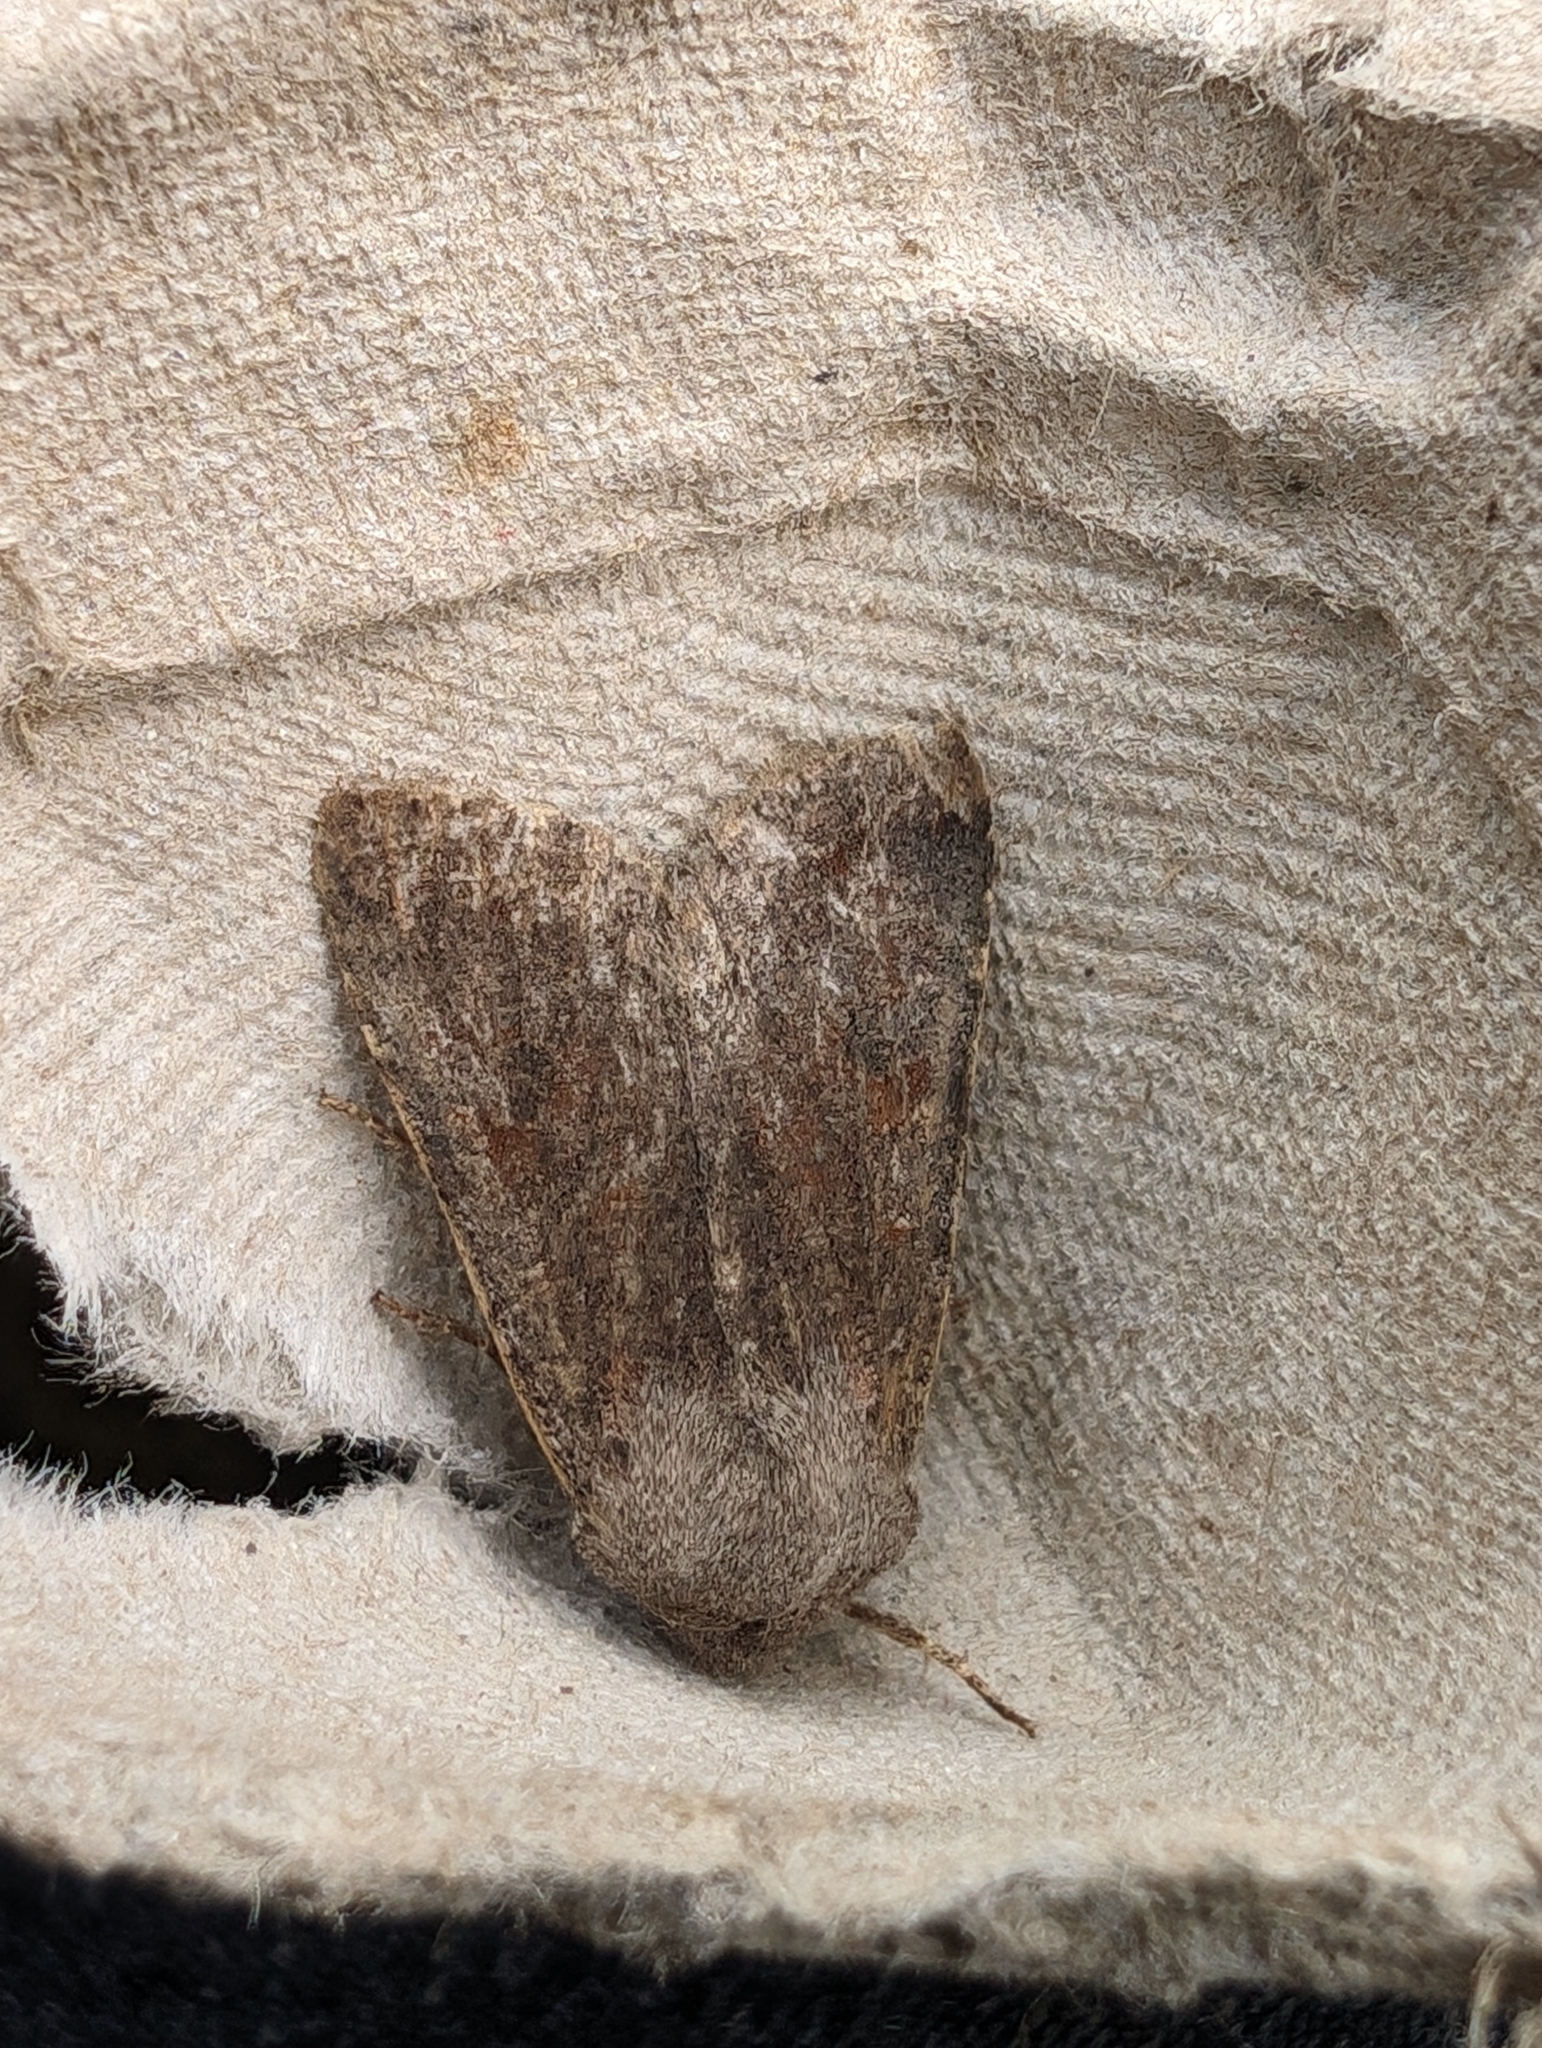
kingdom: Animalia
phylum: Arthropoda
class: Insecta
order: Lepidoptera
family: Noctuidae
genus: Orthosia
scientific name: Orthosia incerta
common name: Clouded drab
